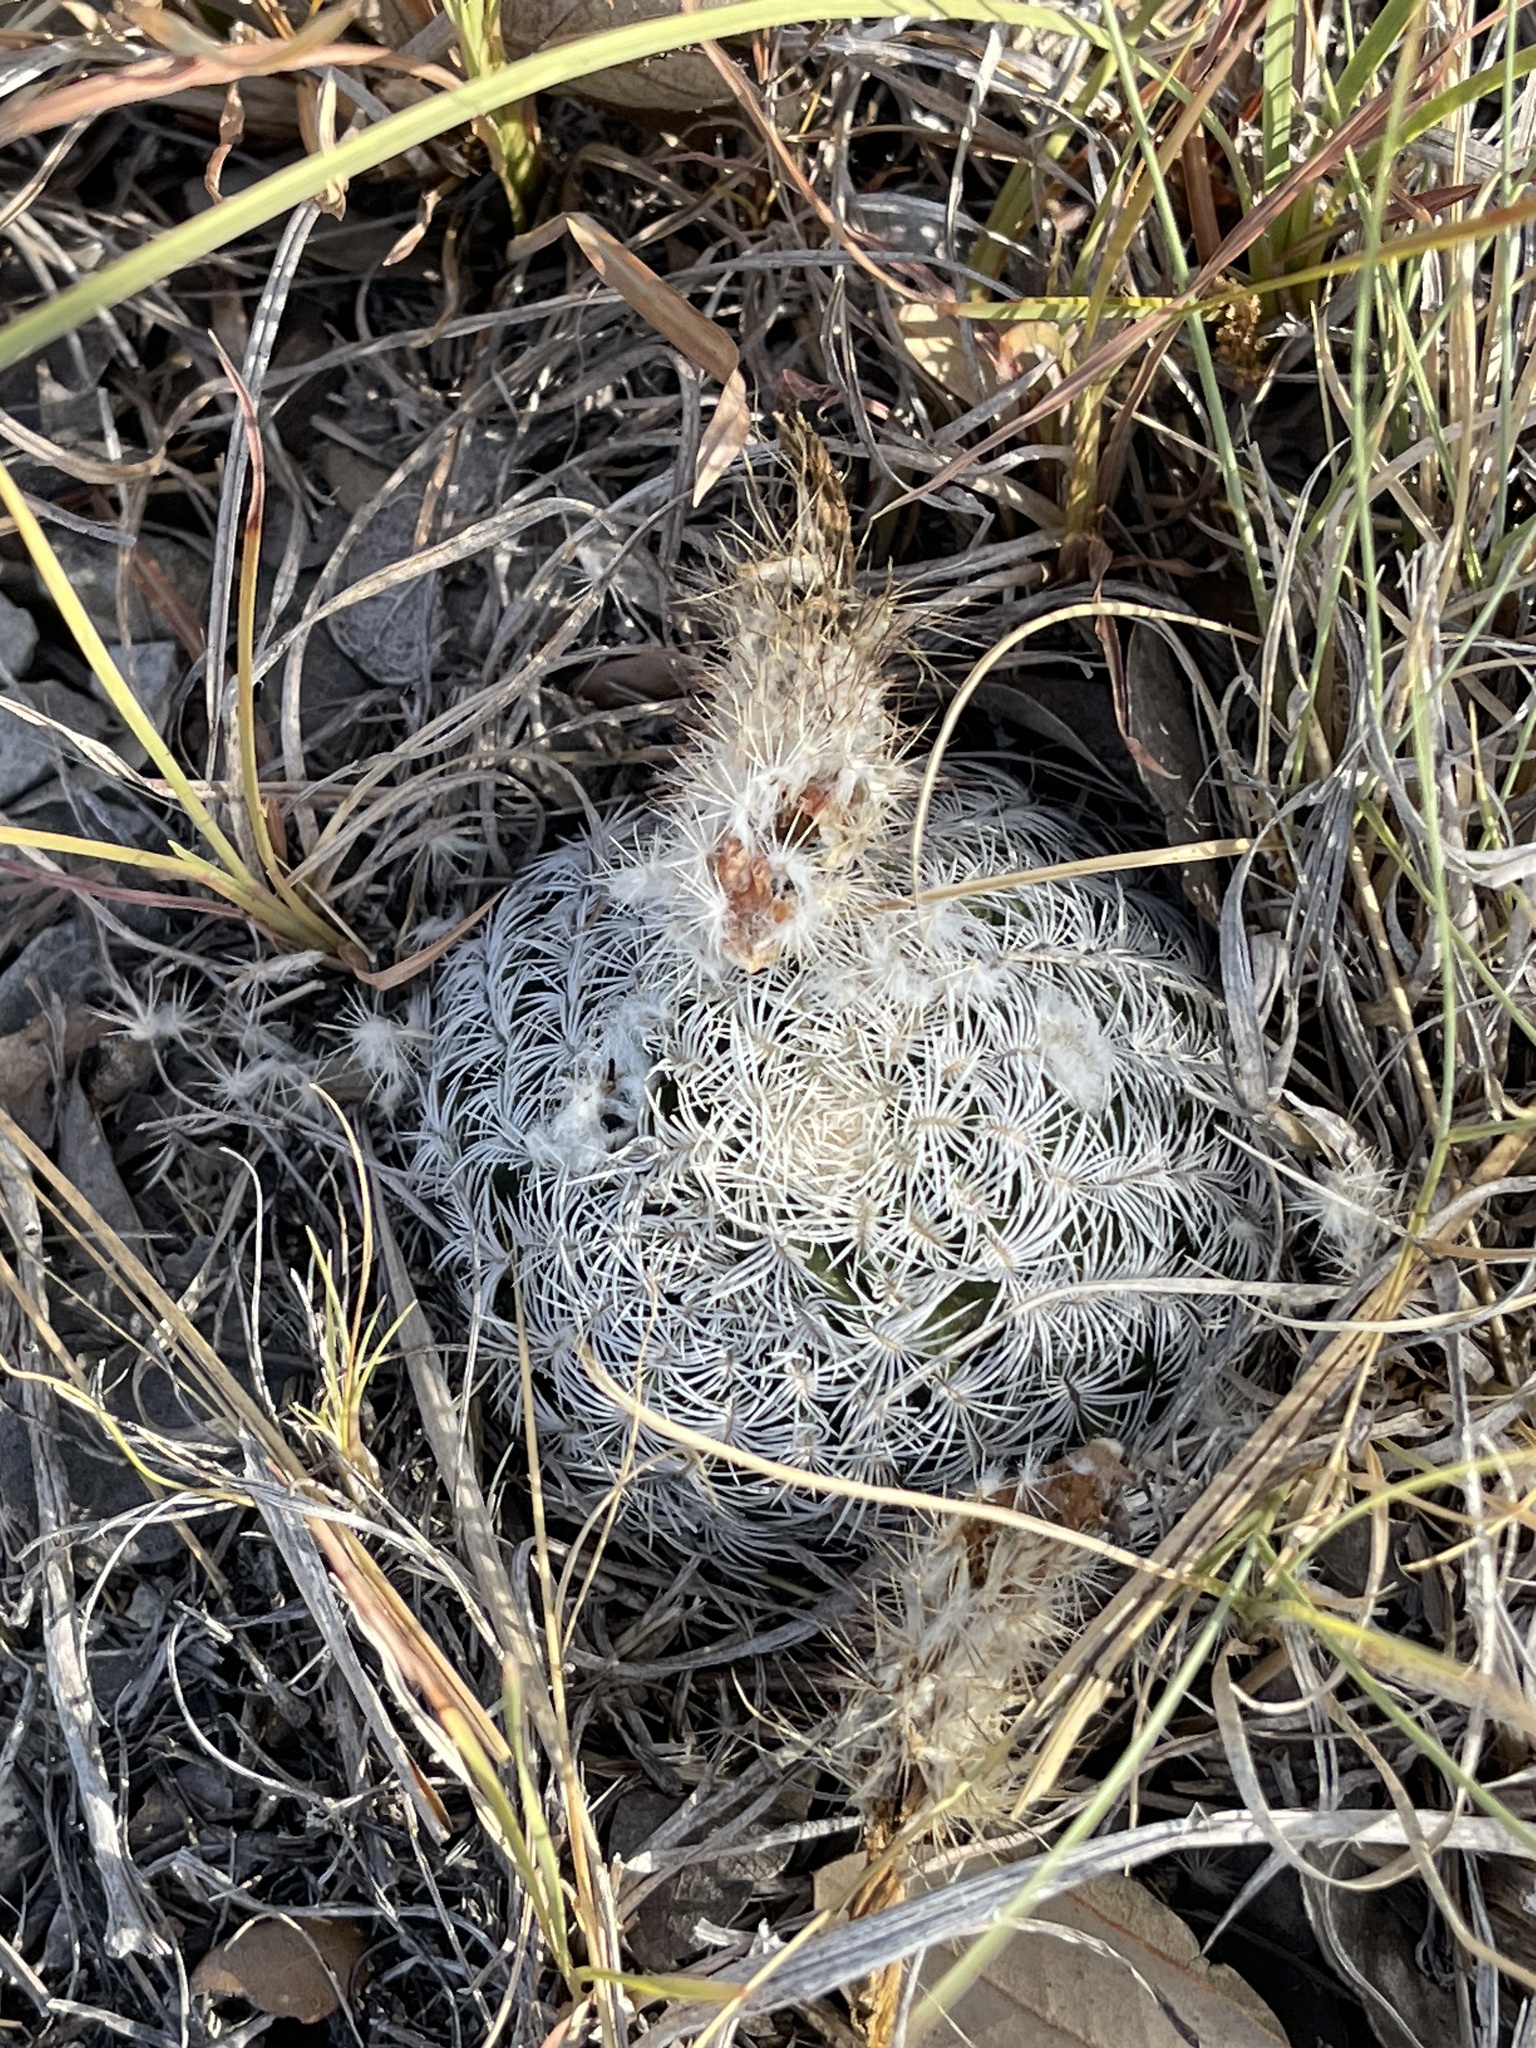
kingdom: Plantae
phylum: Tracheophyta
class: Magnoliopsida
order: Caryophyllales
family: Cactaceae
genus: Echinocereus
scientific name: Echinocereus reichenbachii
